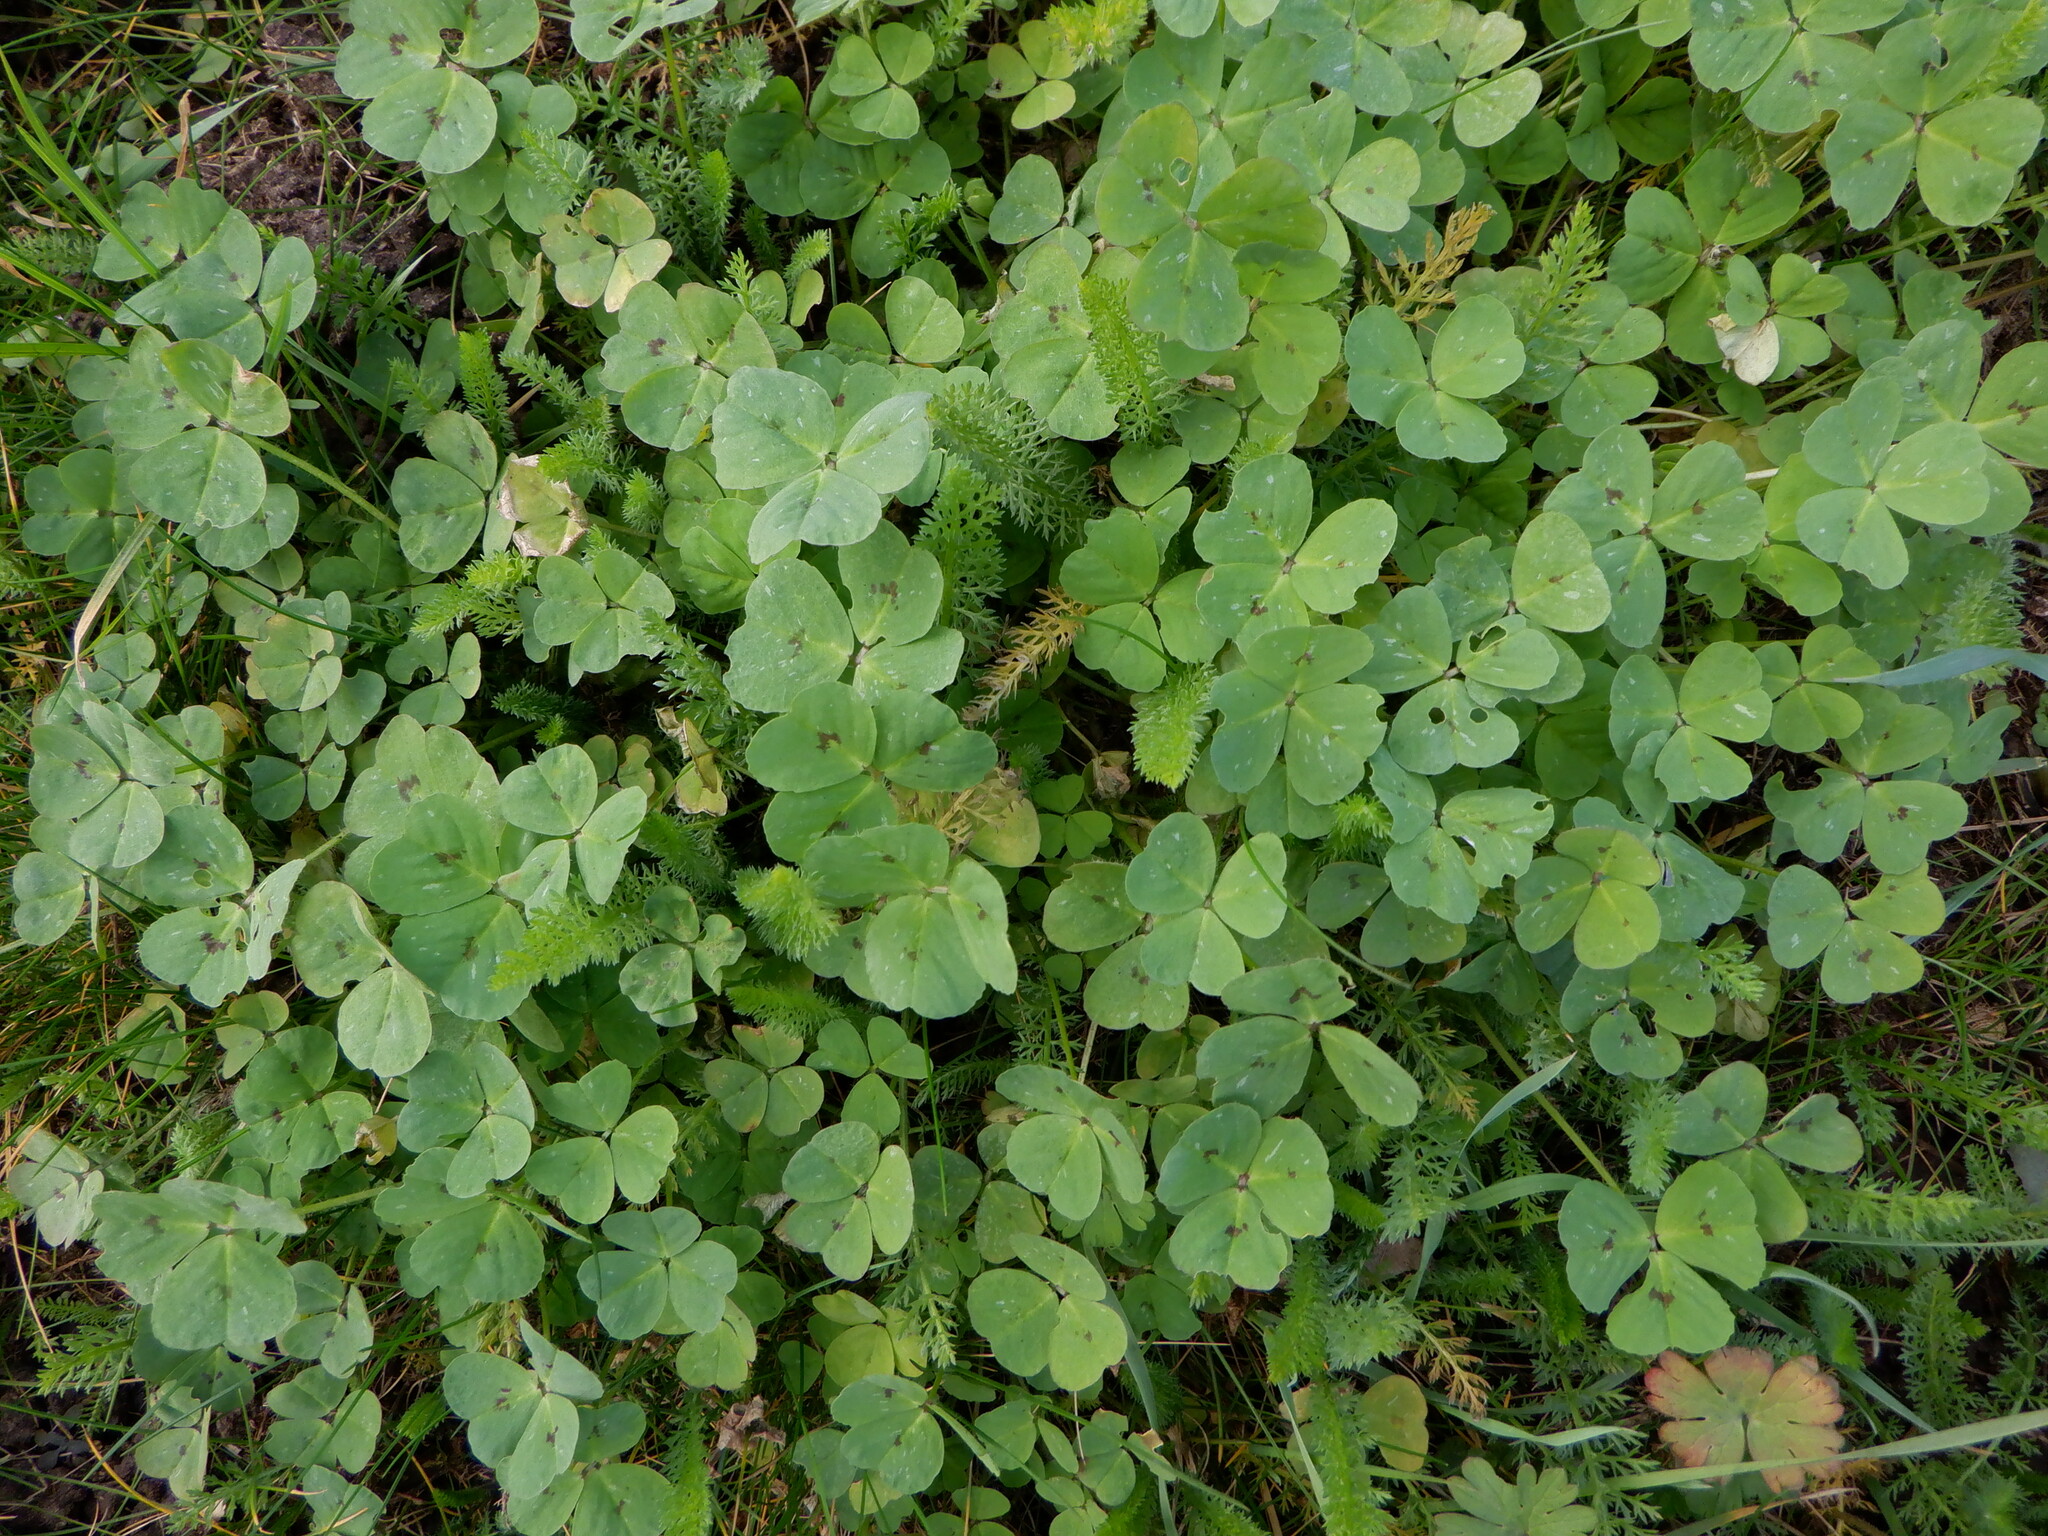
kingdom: Plantae
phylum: Tracheophyta
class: Magnoliopsida
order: Fabales
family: Fabaceae
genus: Medicago
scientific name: Medicago arabica
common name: Spotted medick
